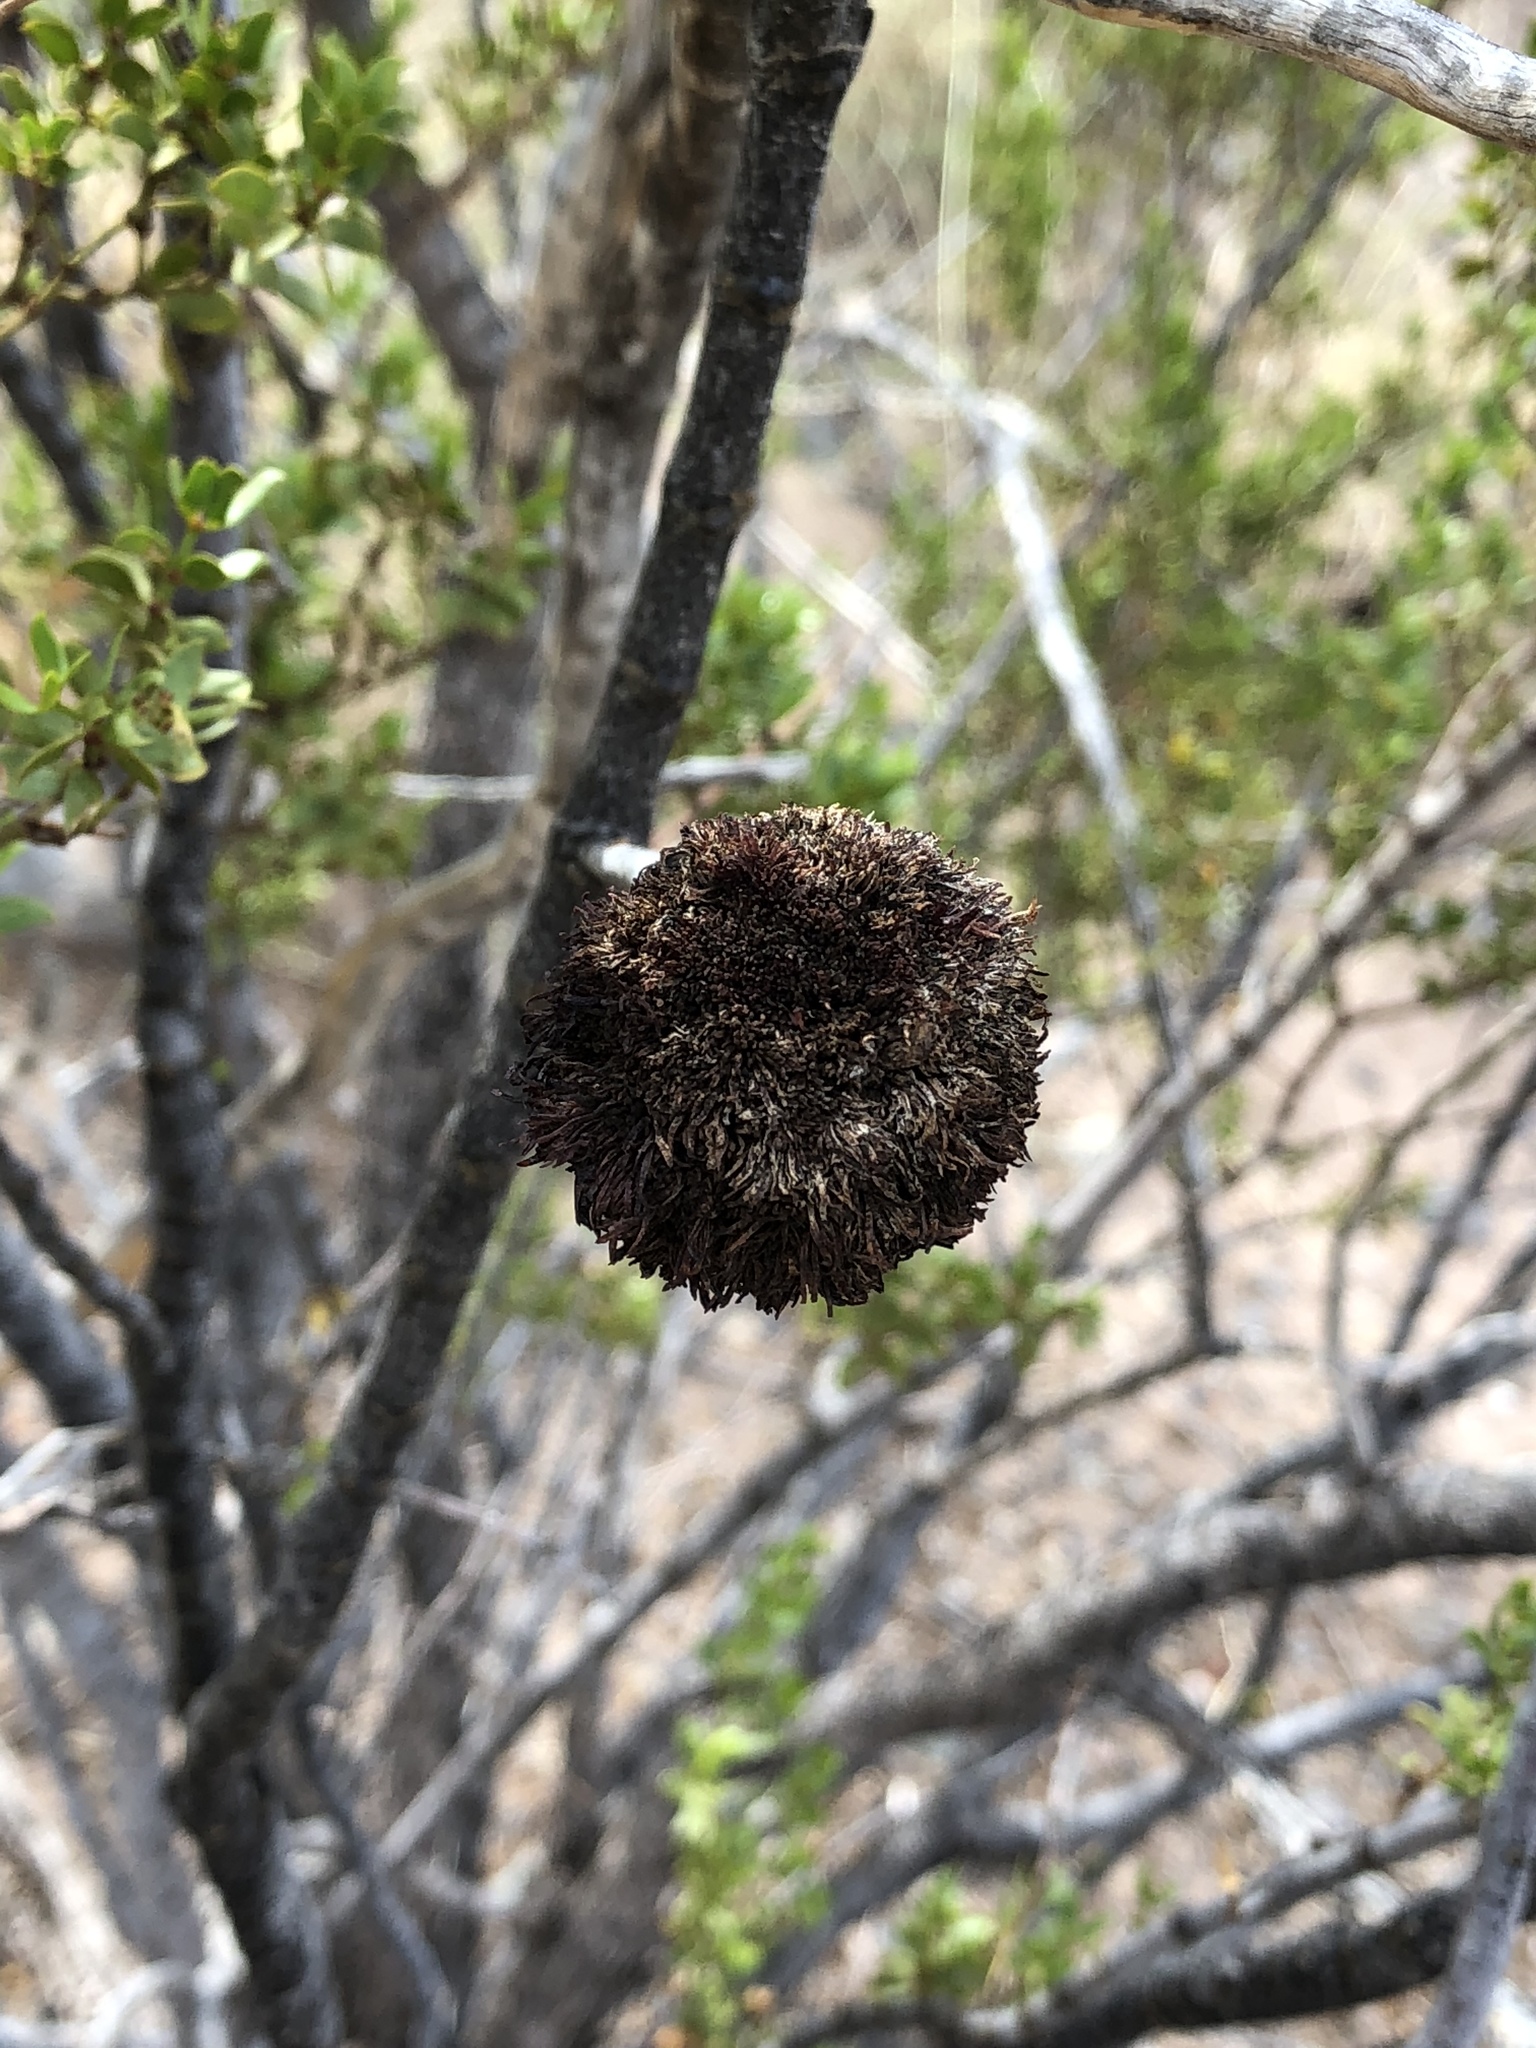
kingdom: Animalia
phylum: Arthropoda
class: Insecta
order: Diptera
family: Cecidomyiidae
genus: Asphondylia
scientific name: Asphondylia auripila
